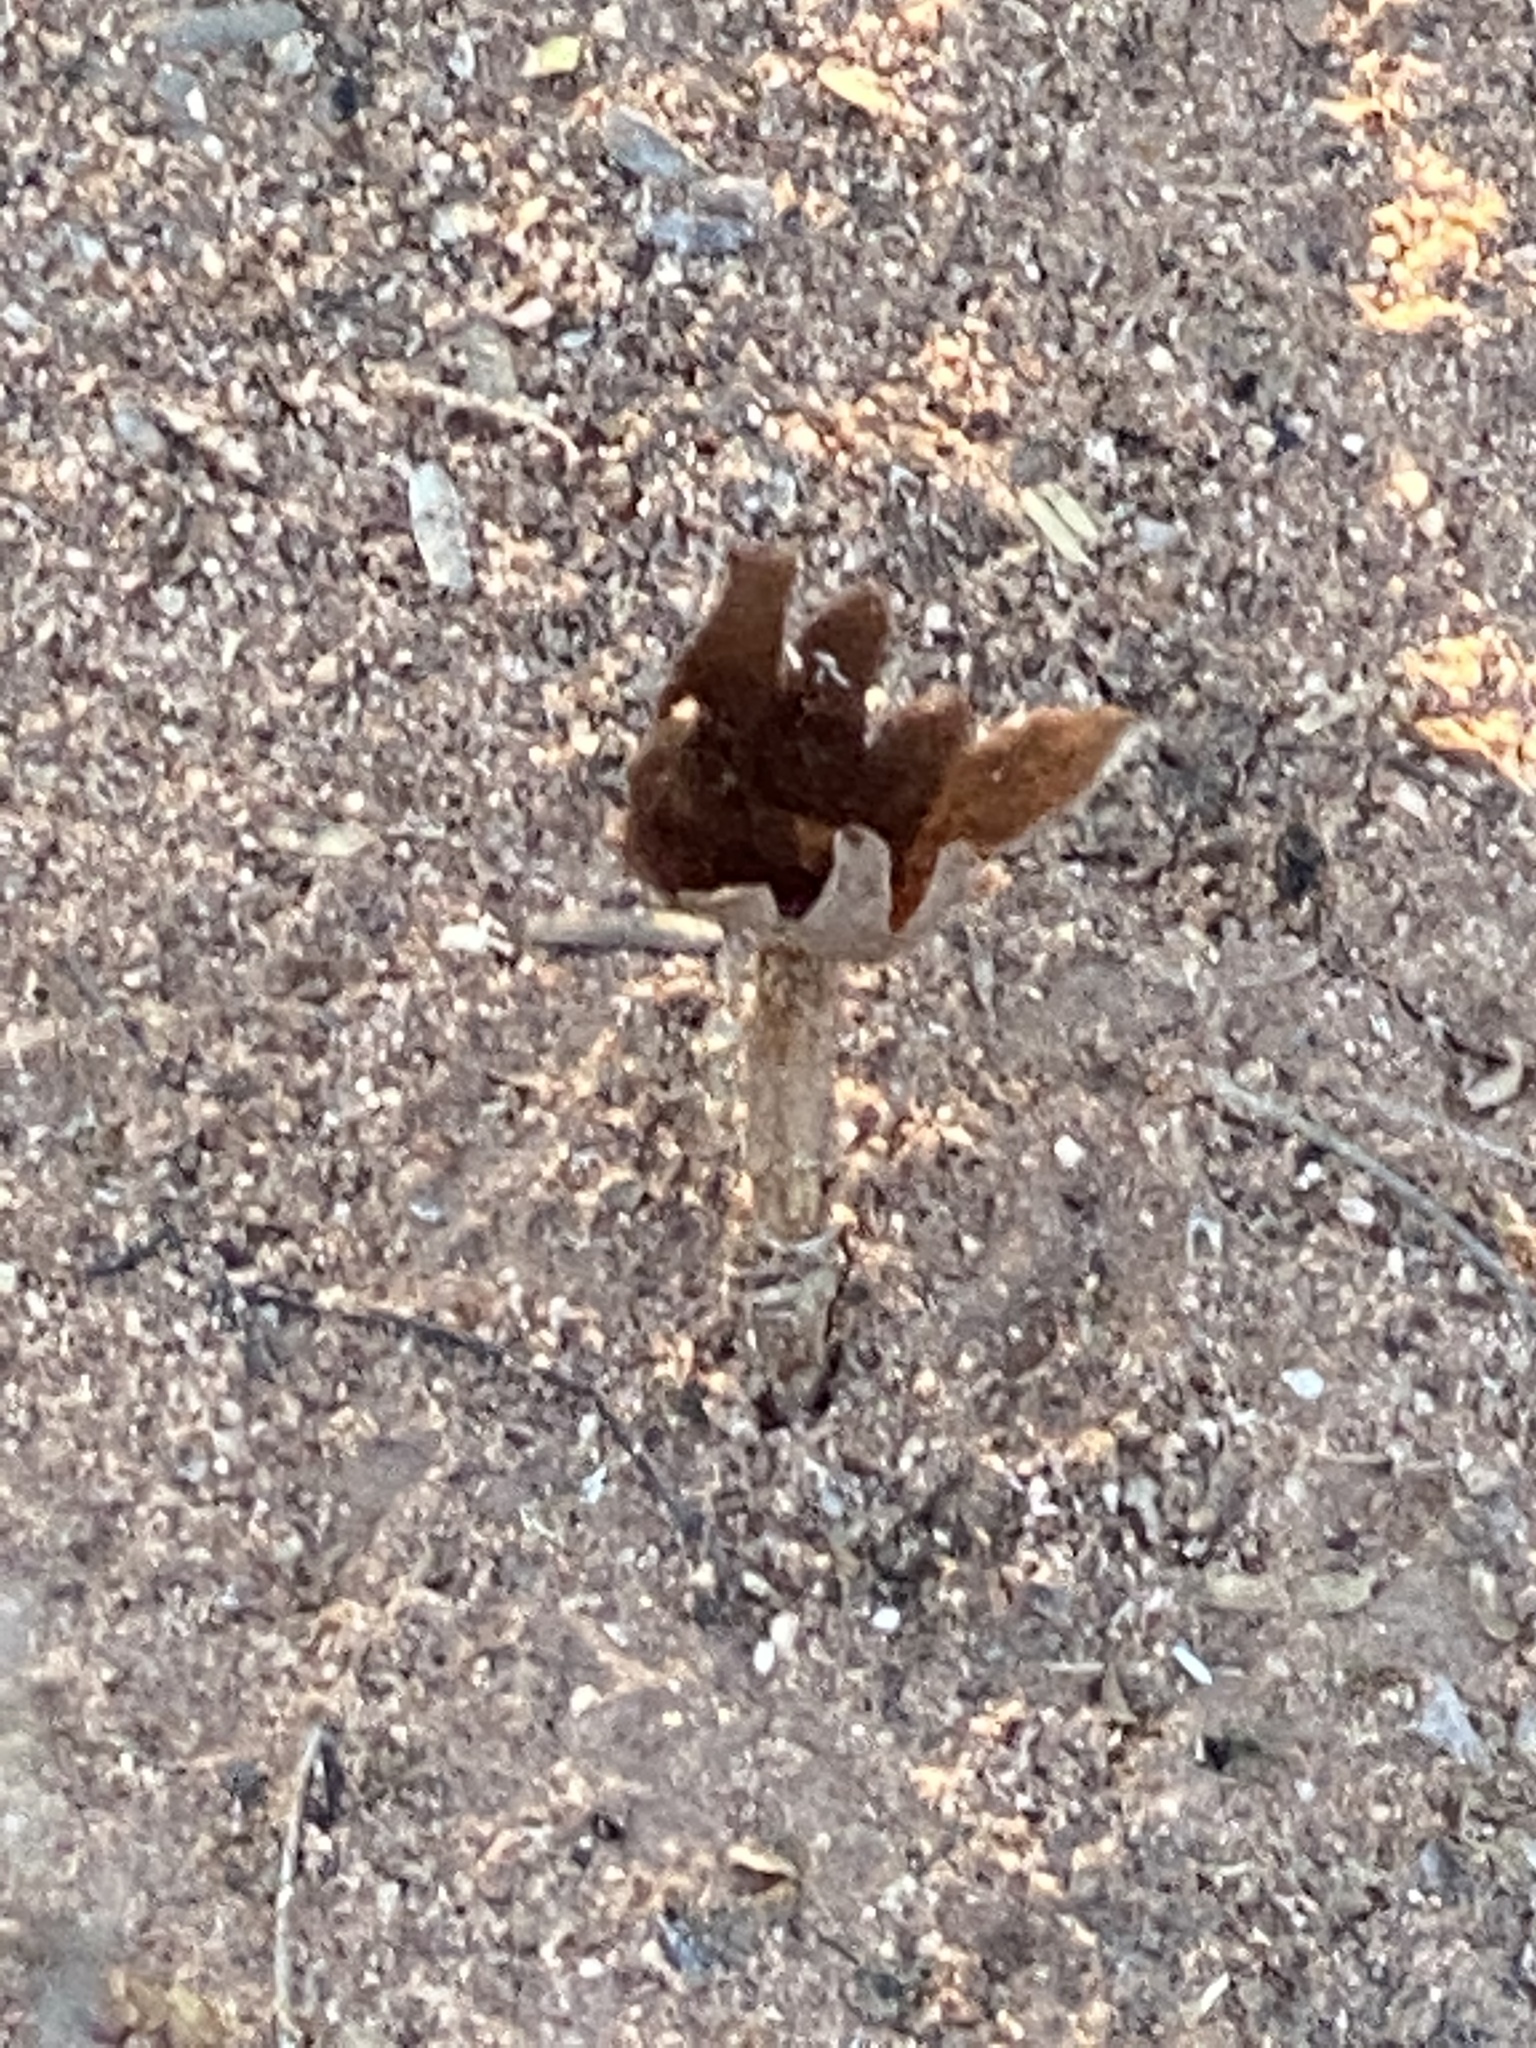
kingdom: Fungi
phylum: Basidiomycota
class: Agaricomycetes
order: Agaricales
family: Agaricaceae
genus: Schizostoma
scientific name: Schizostoma laceratum
